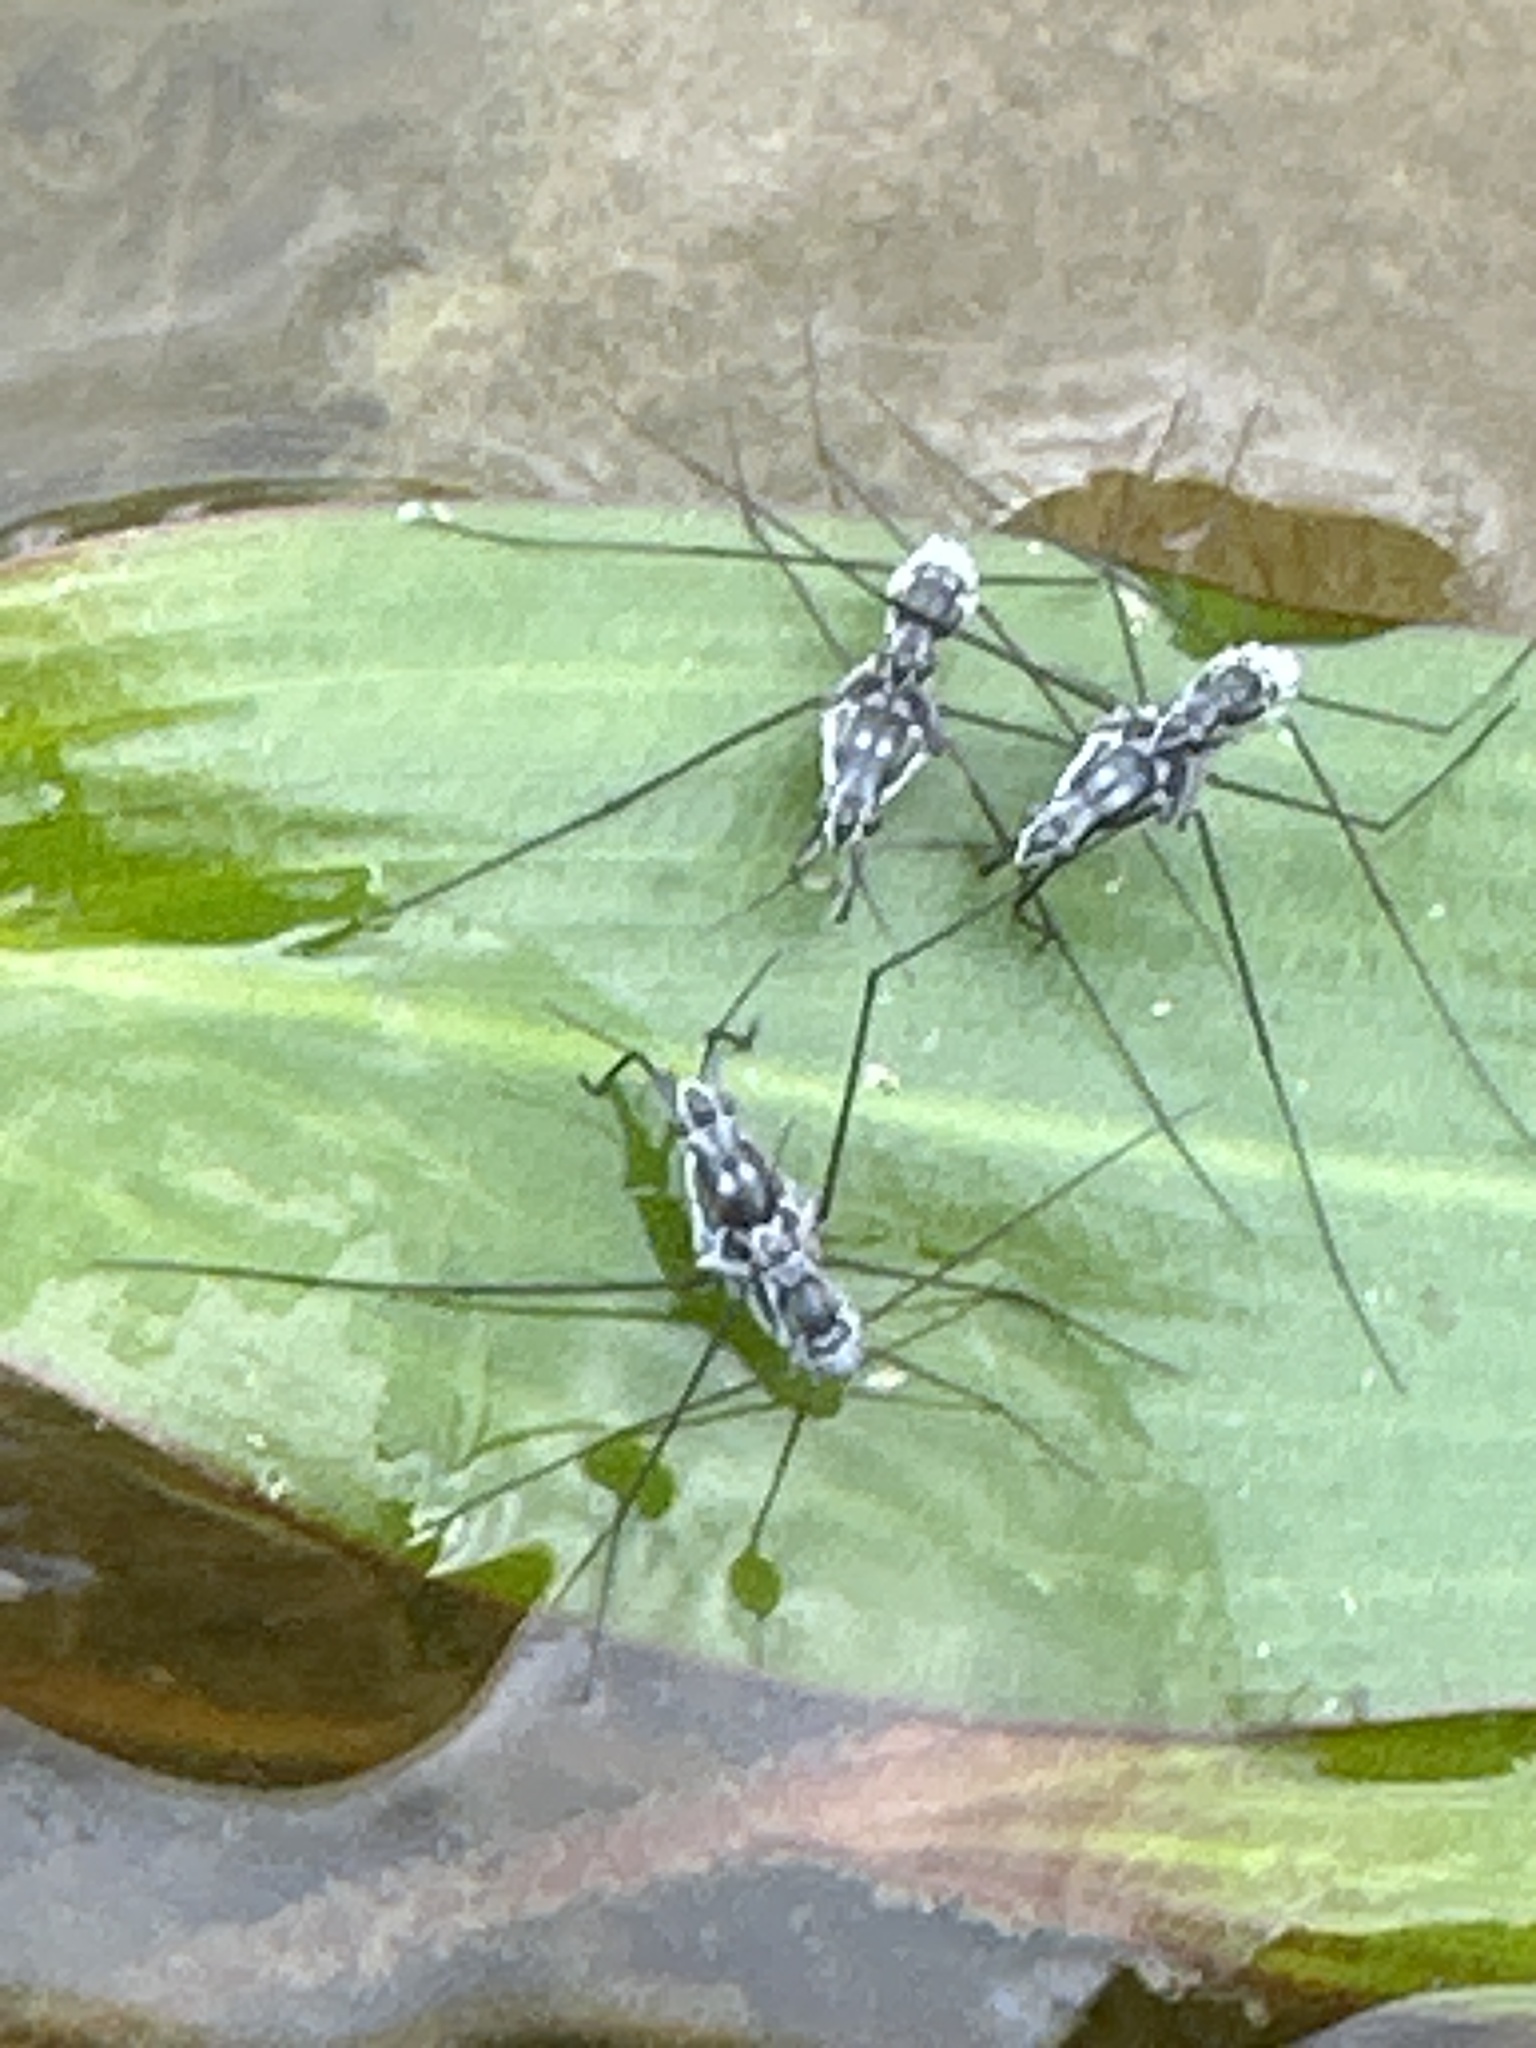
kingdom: Animalia
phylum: Arthropoda
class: Insecta
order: Hemiptera
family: Gerridae
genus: Neogerris
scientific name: Neogerris hesione
